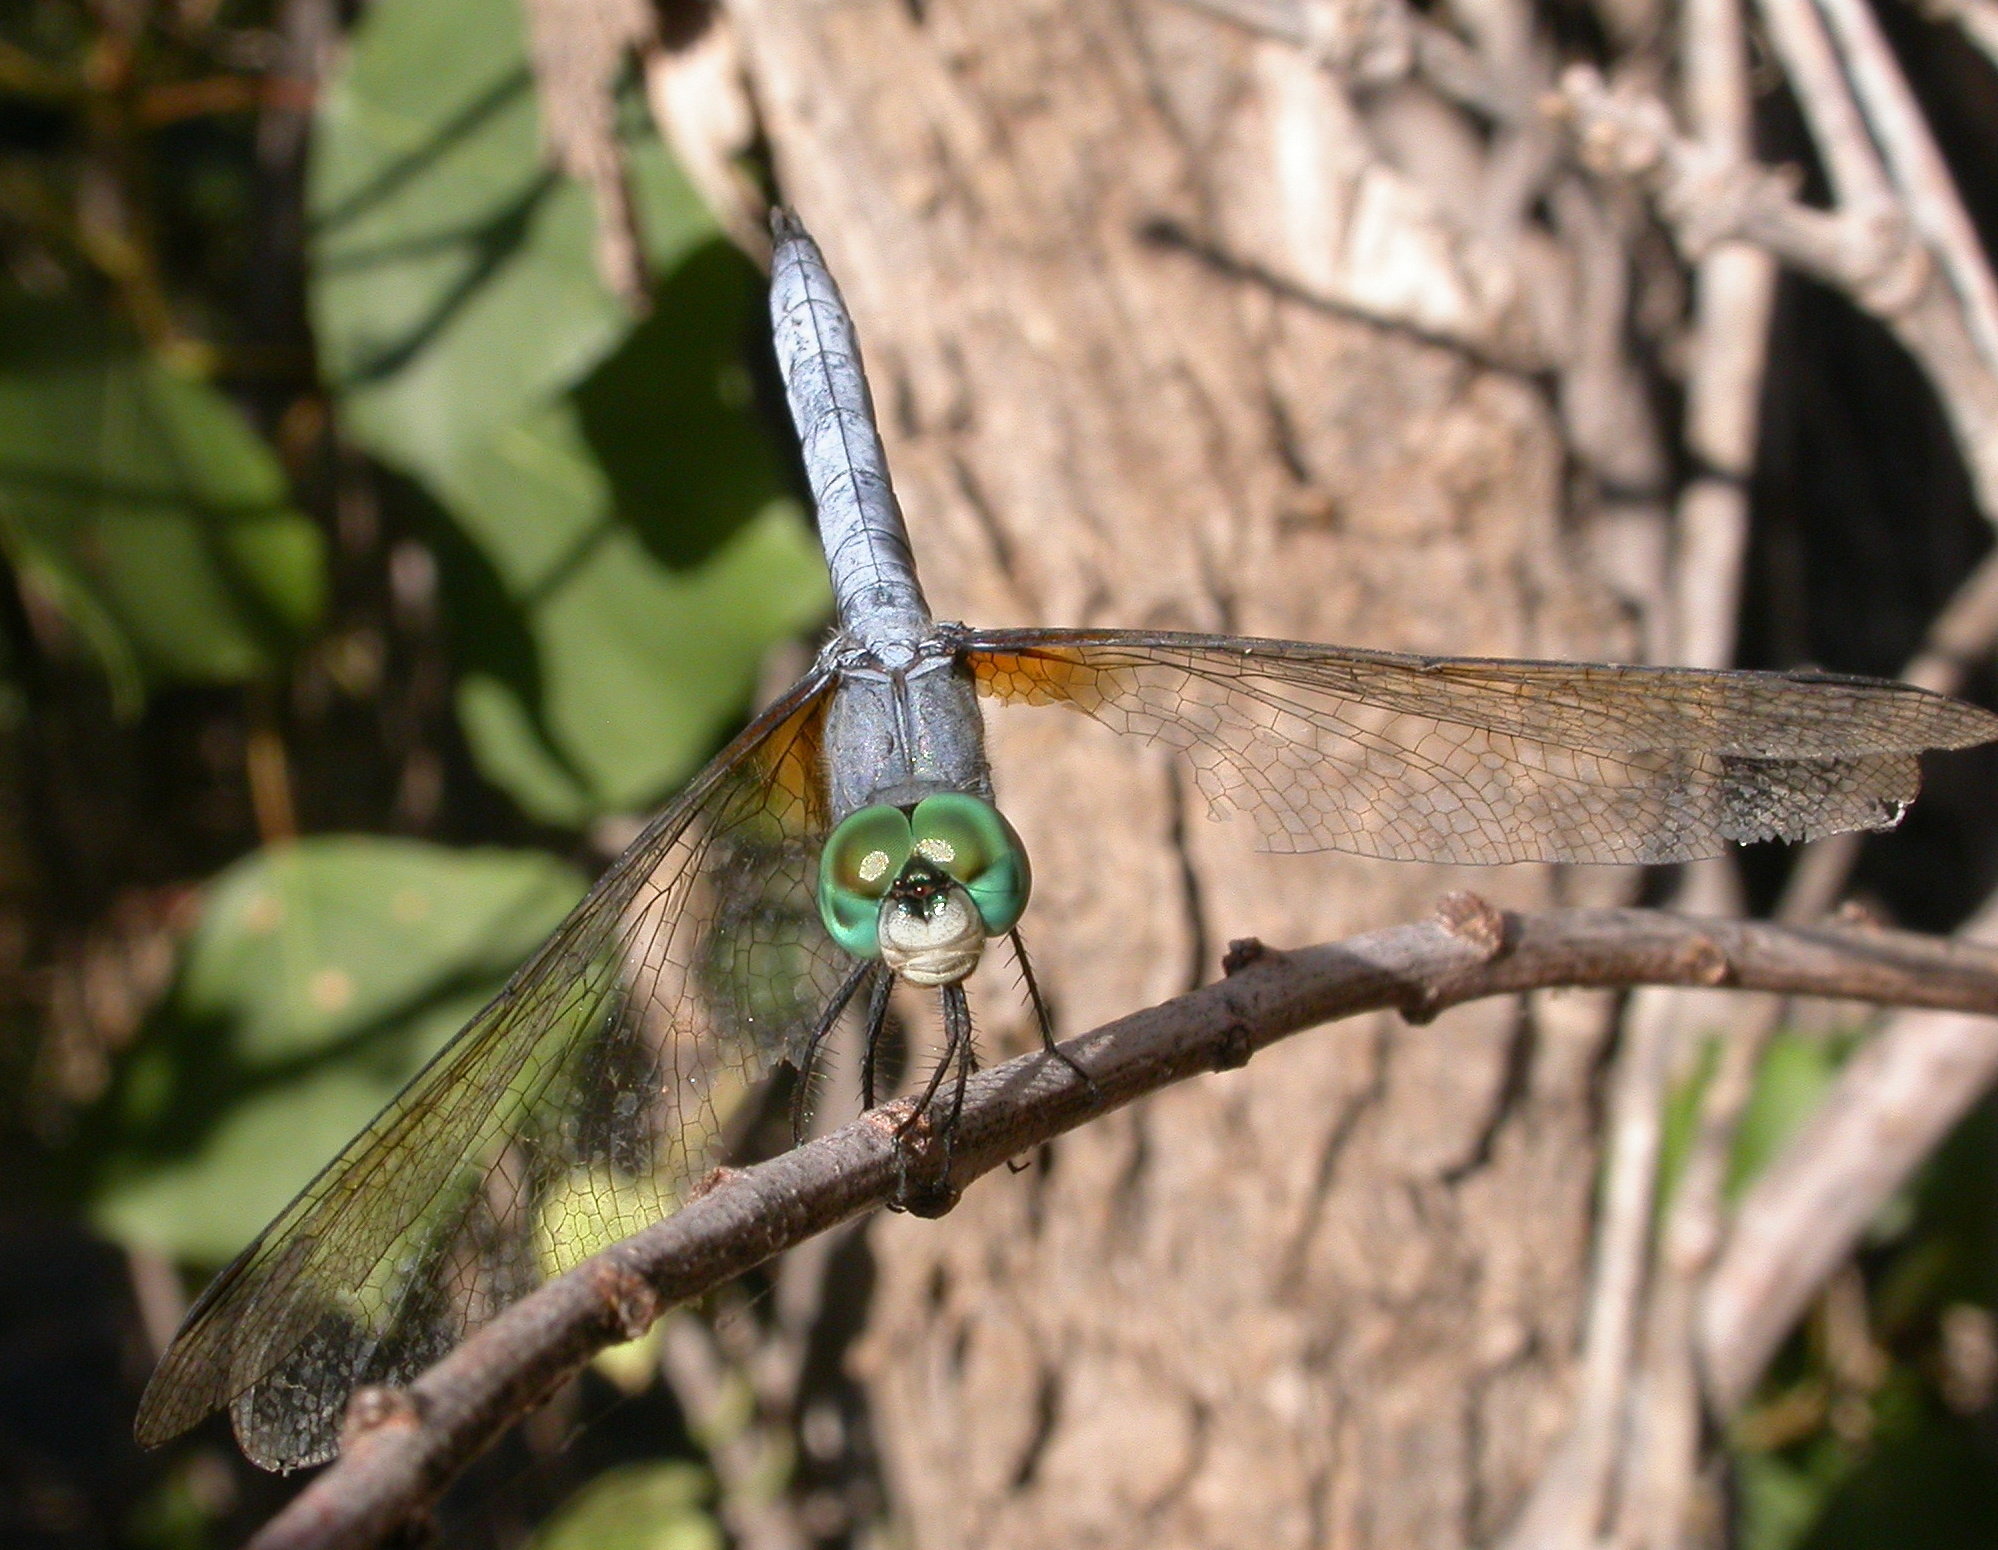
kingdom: Animalia
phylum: Arthropoda
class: Insecta
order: Odonata
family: Libellulidae
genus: Pachydiplax
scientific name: Pachydiplax longipennis
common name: Blue dasher
